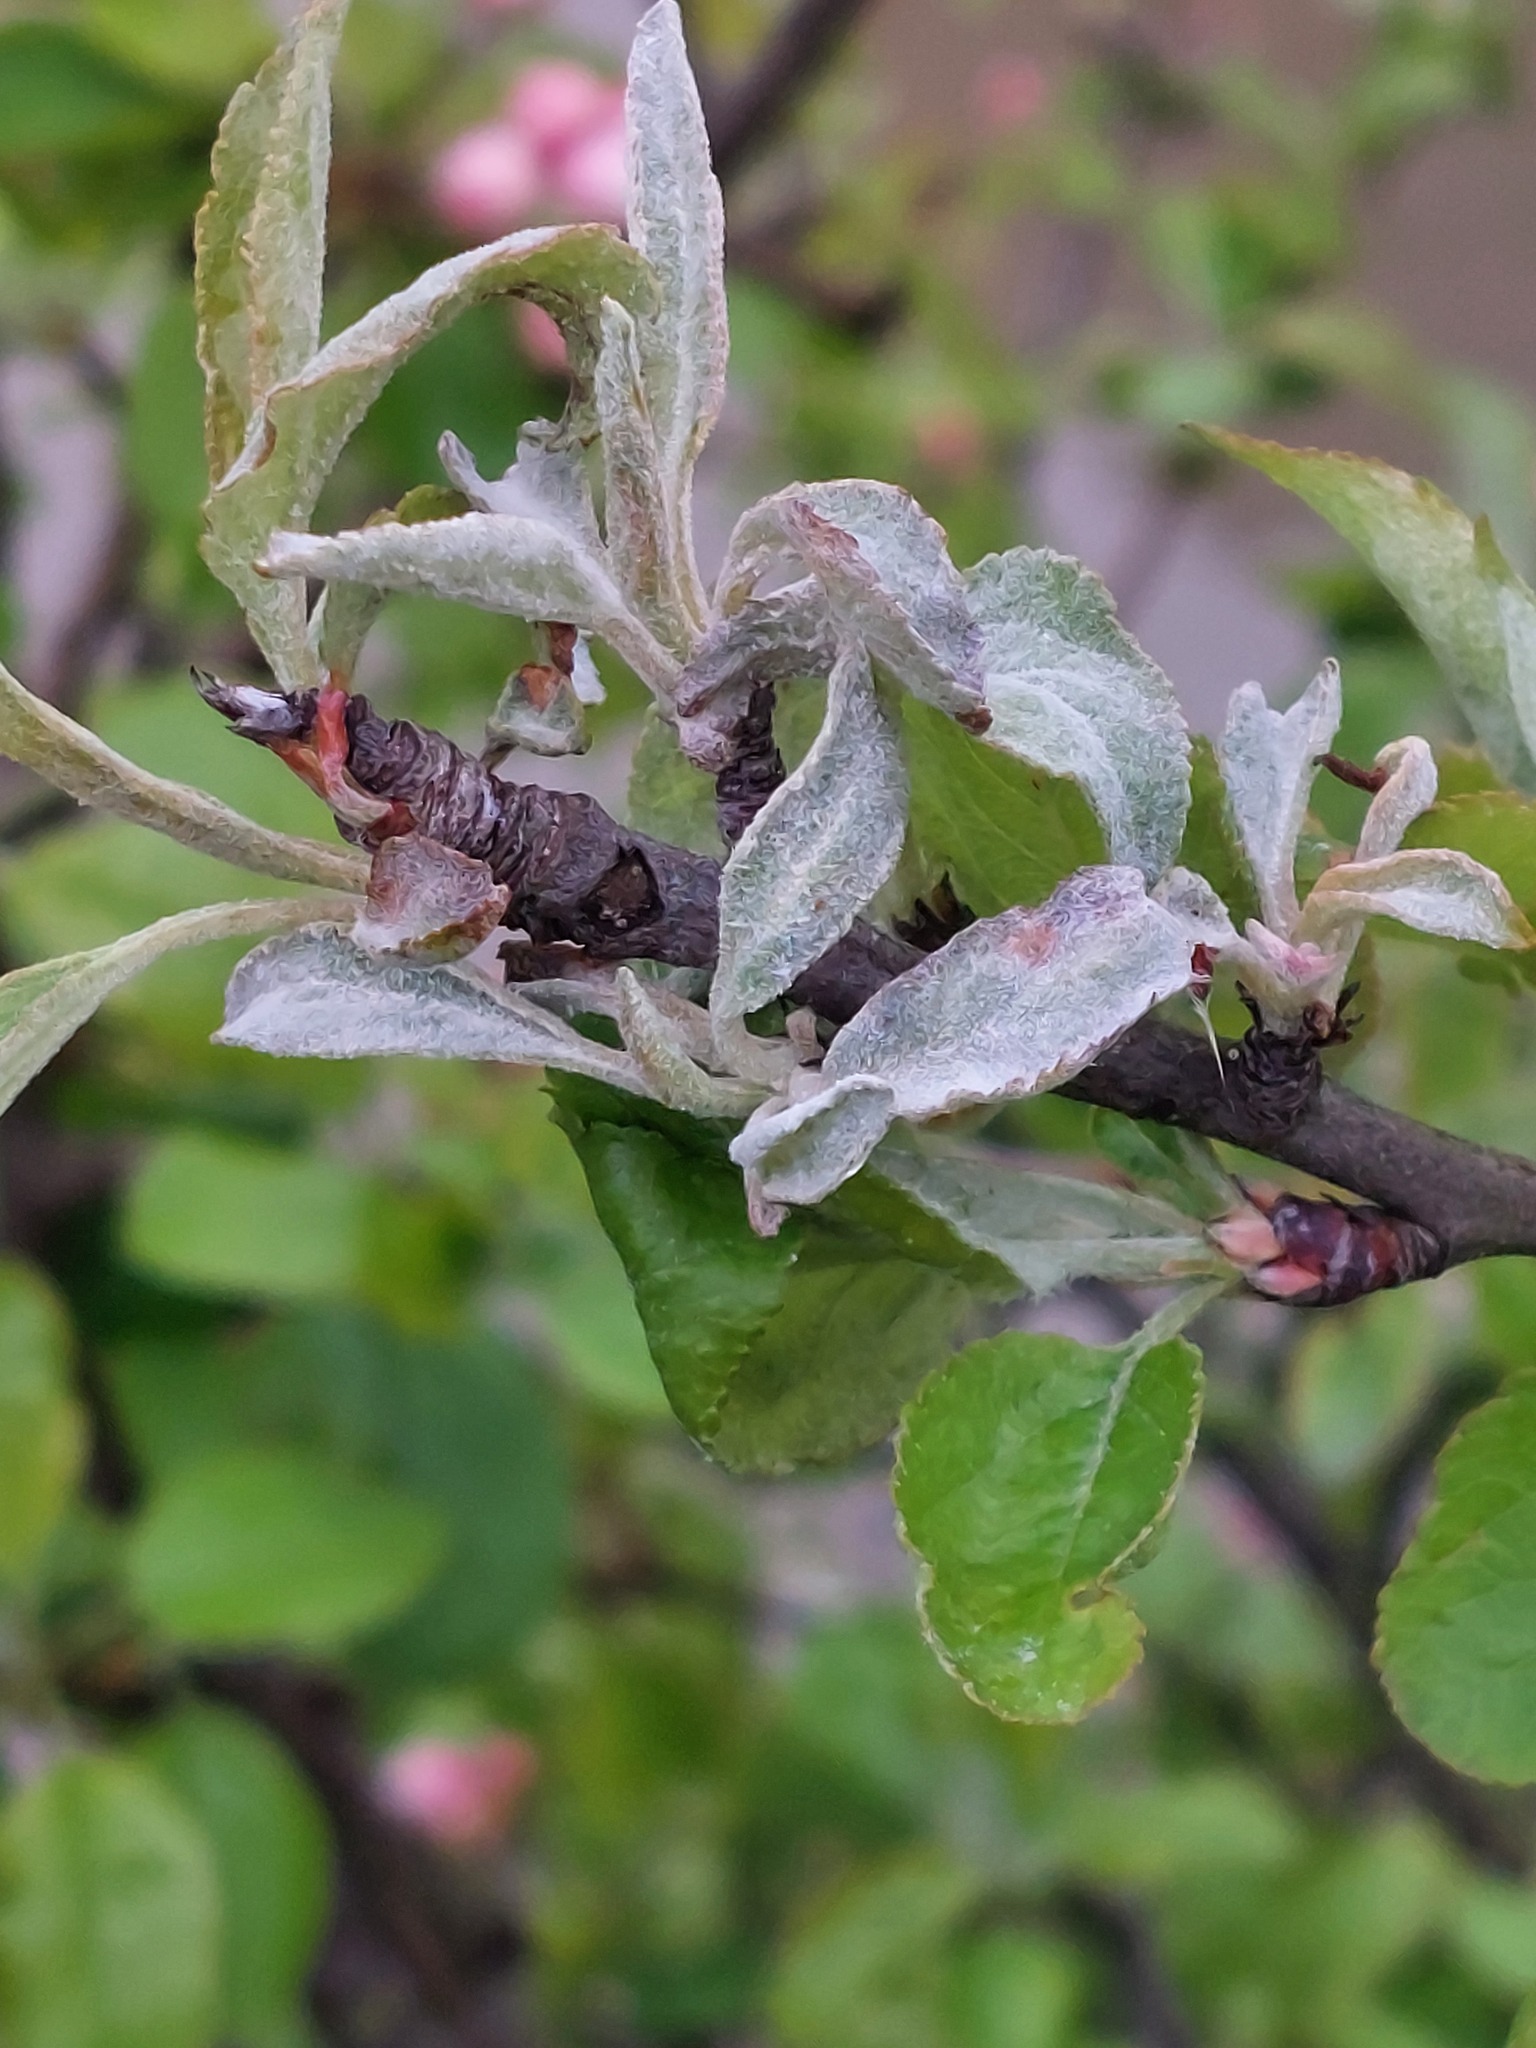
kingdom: Fungi
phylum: Ascomycota
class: Leotiomycetes
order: Helotiales
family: Erysiphaceae
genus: Podosphaera
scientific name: Podosphaera leucotricha
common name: Apple powdery mildew
